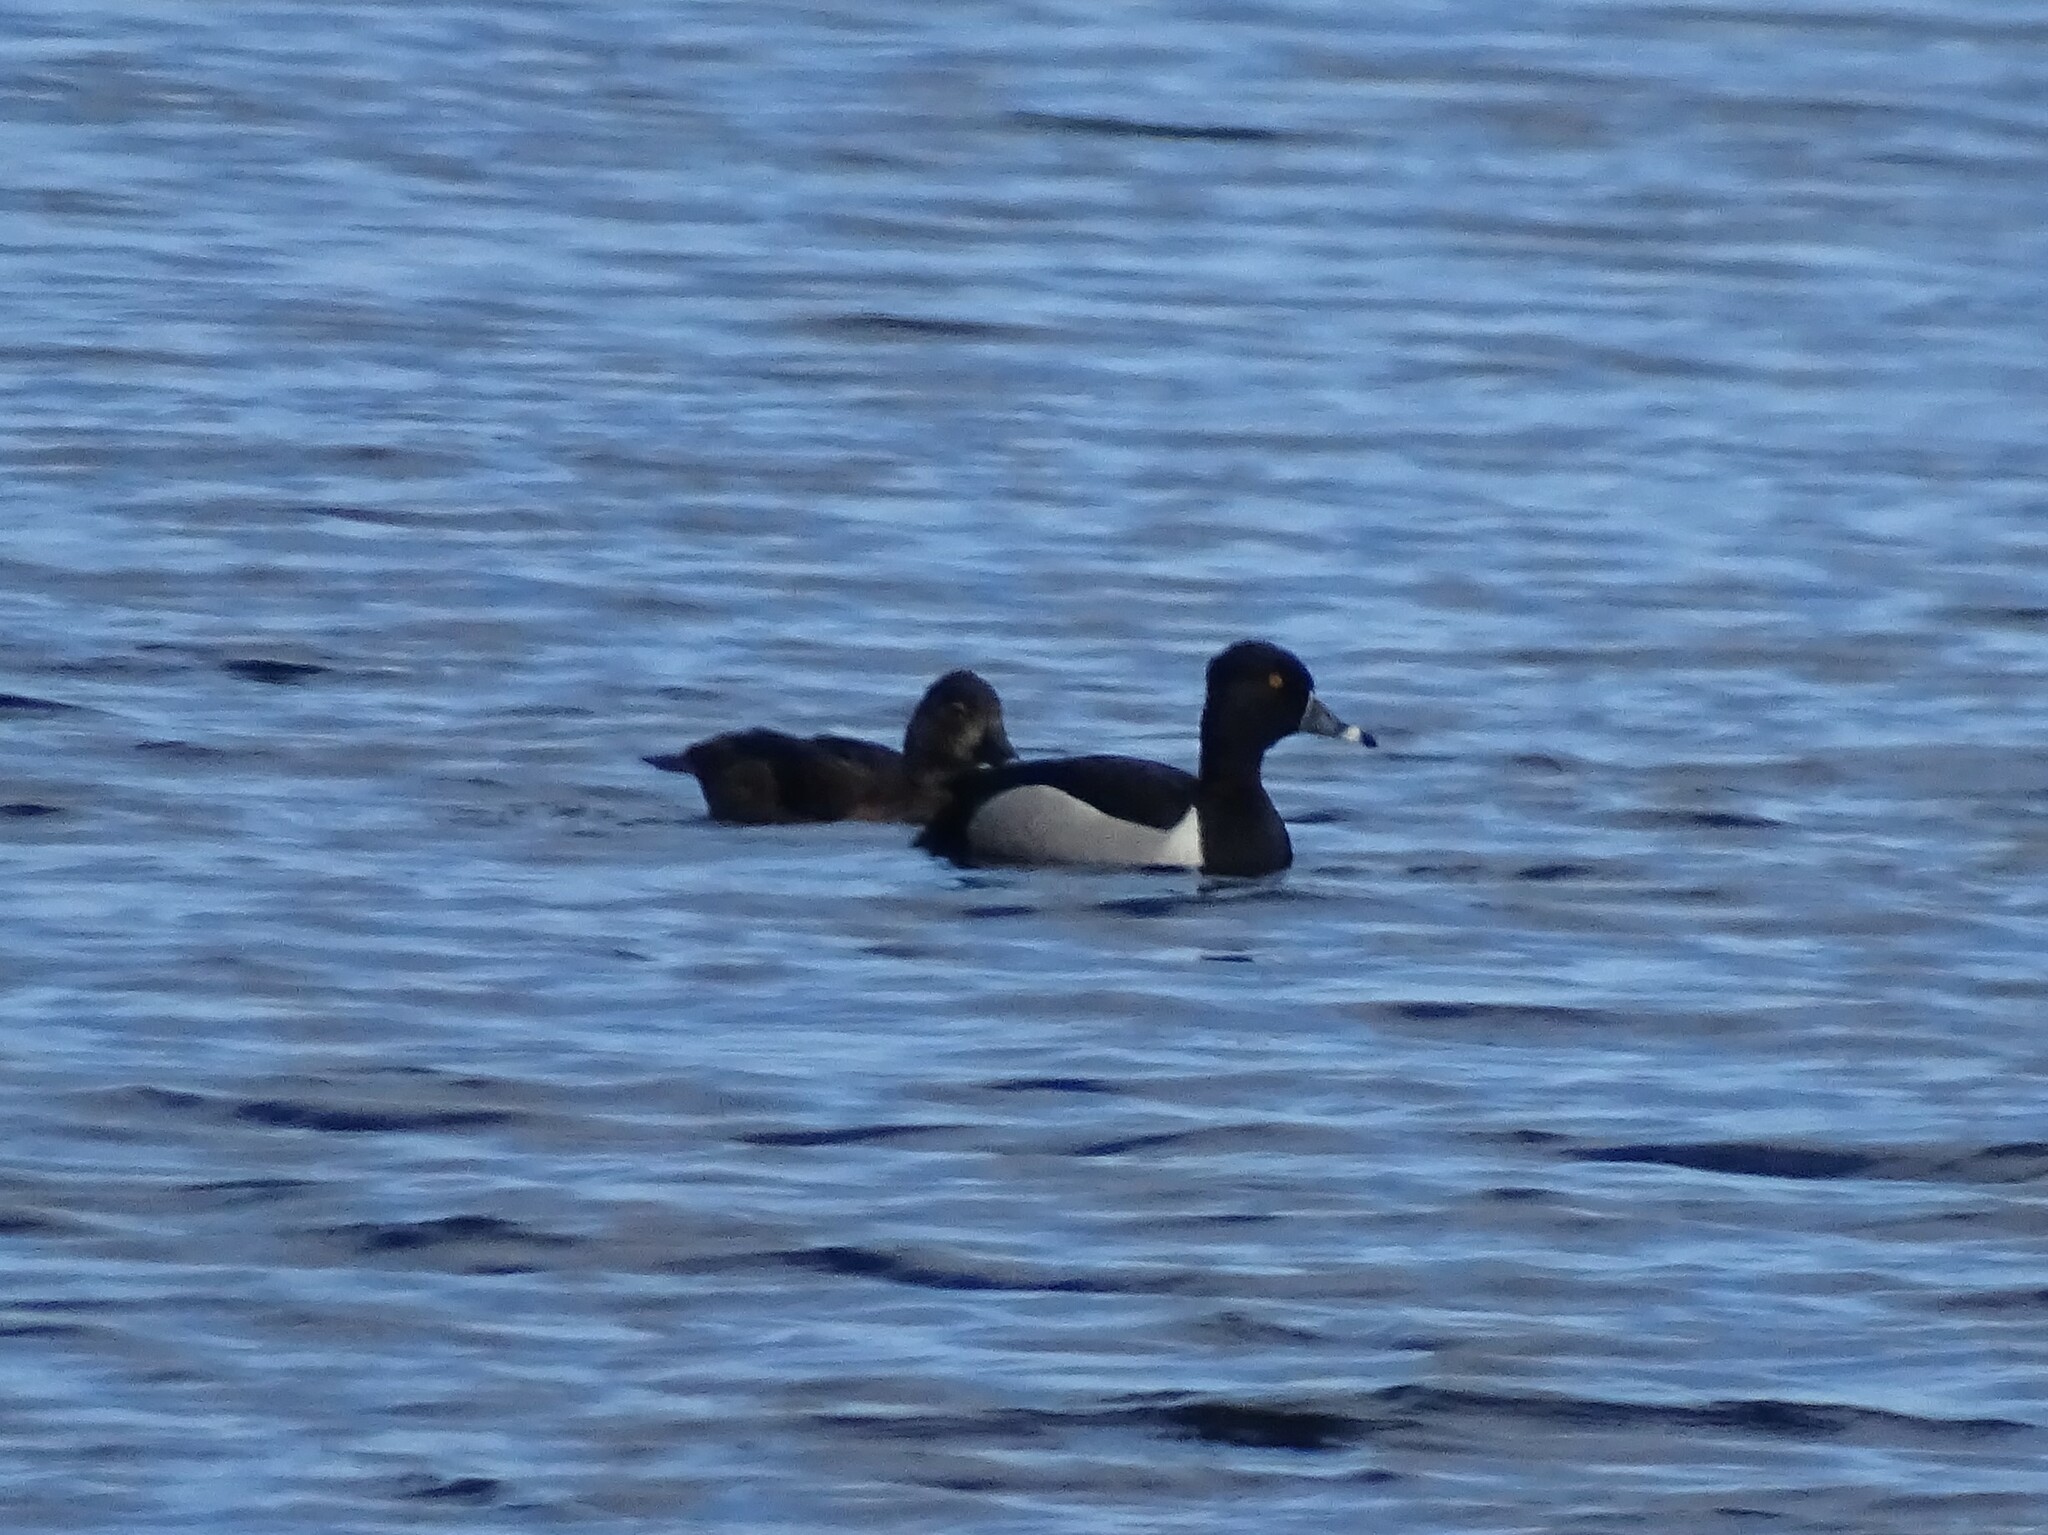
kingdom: Animalia
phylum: Chordata
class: Aves
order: Anseriformes
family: Anatidae
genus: Aythya
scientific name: Aythya collaris
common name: Ring-necked duck
